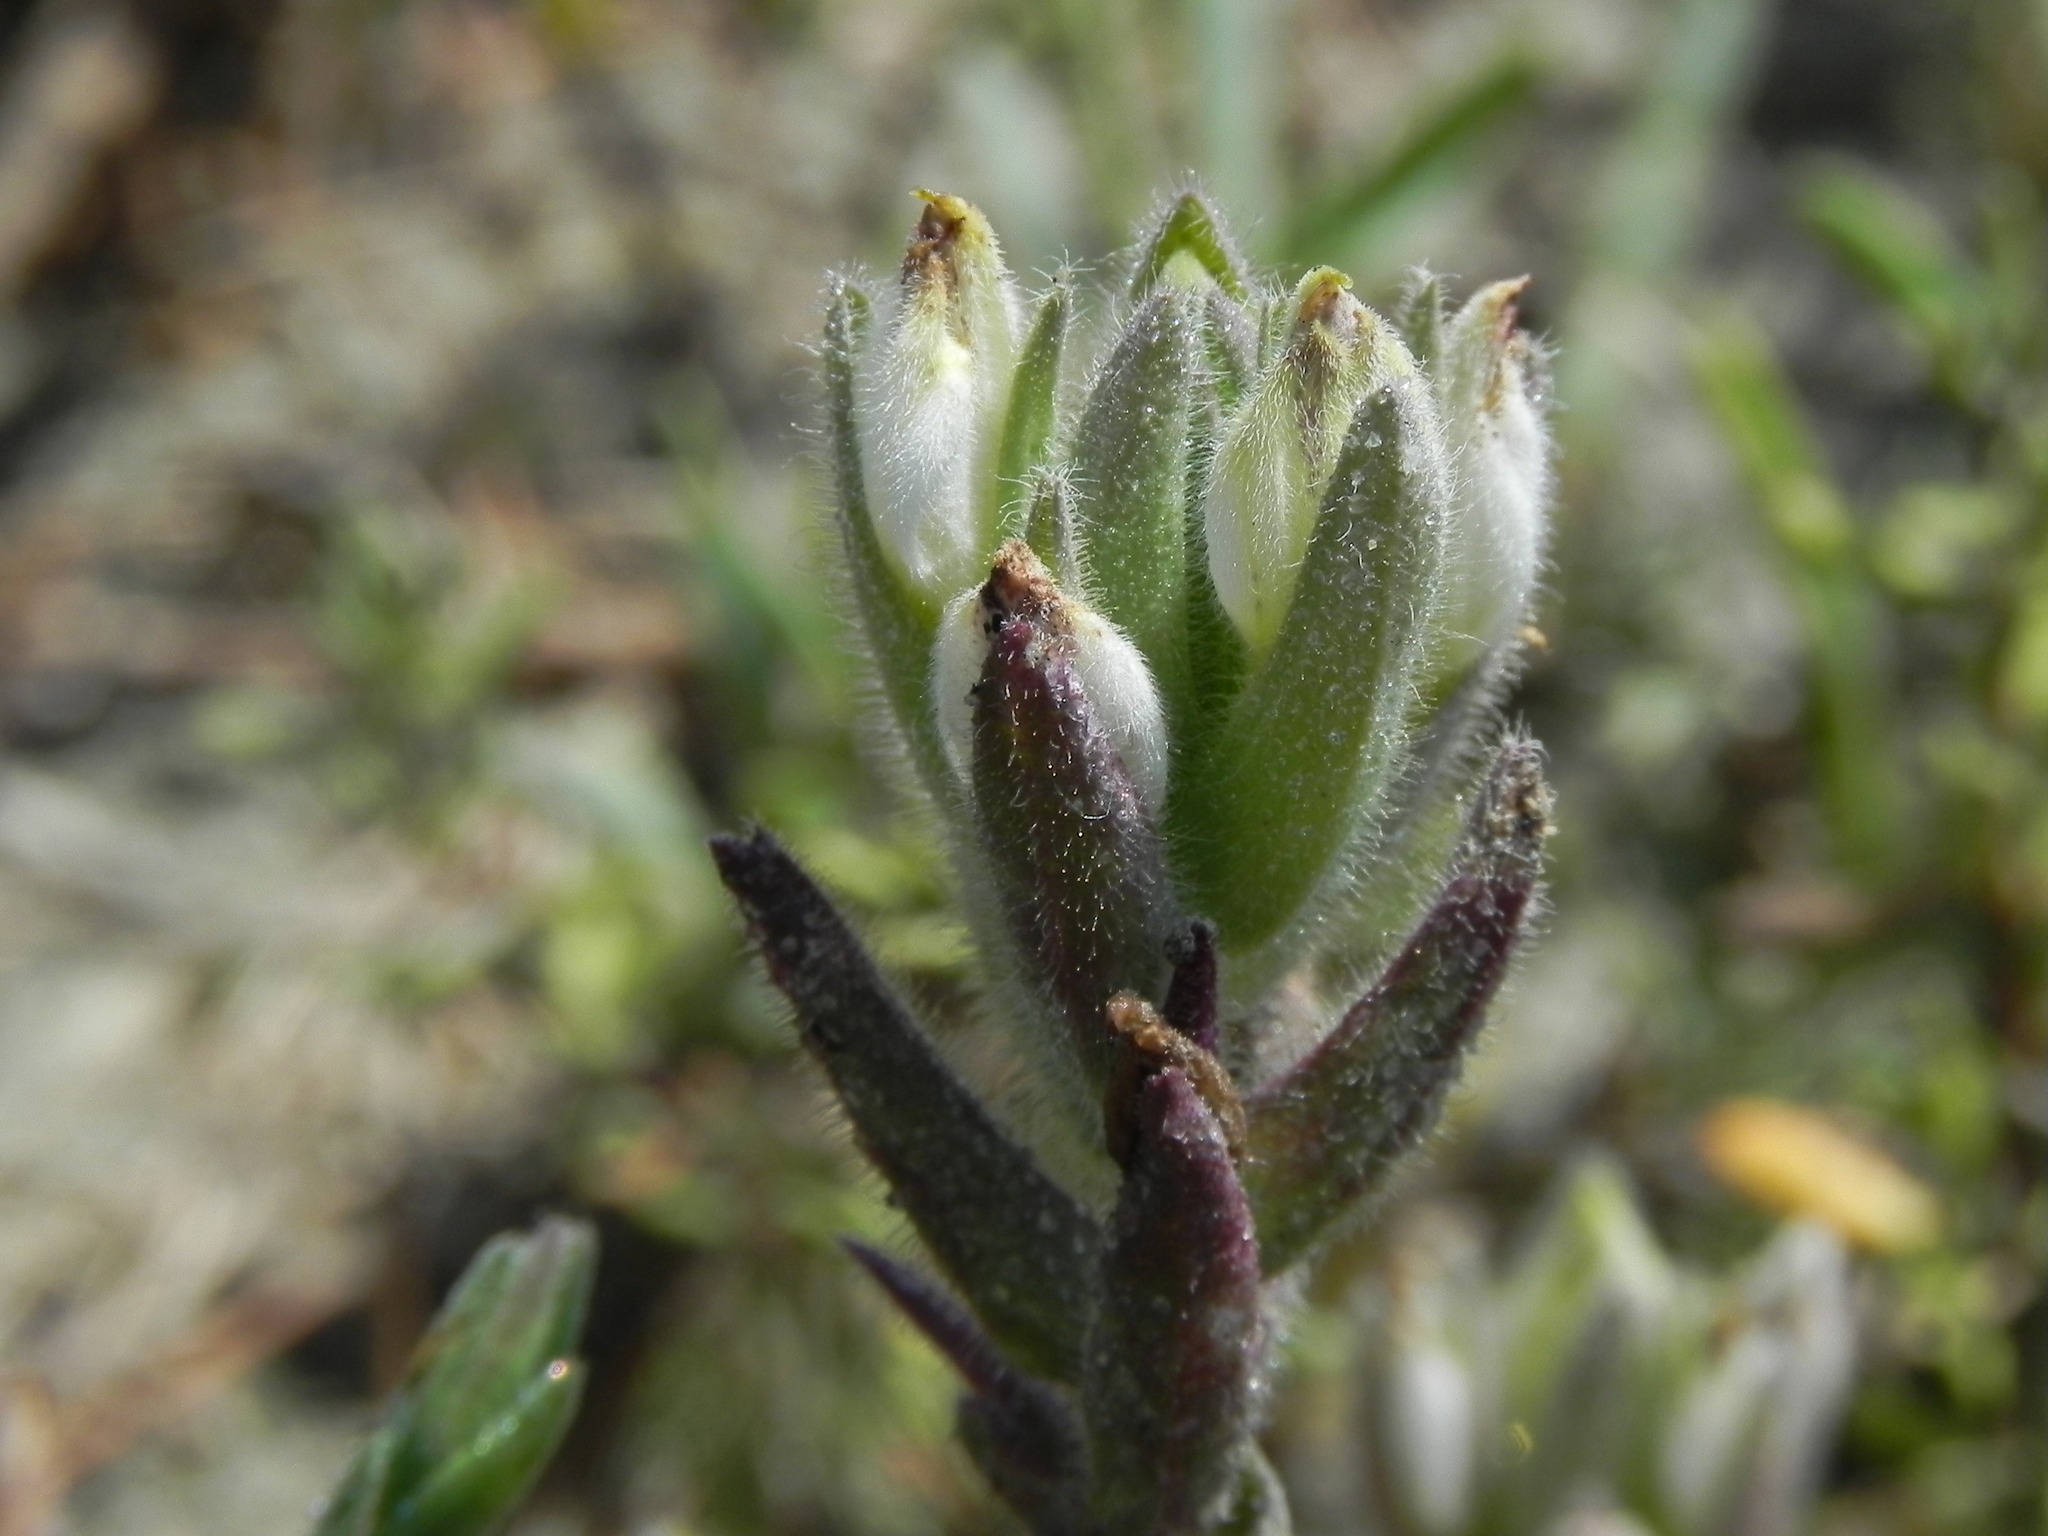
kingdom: Plantae
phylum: Tracheophyta
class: Magnoliopsida
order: Lamiales
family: Orobanchaceae
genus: Chloropyron
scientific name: Chloropyron maritimum
